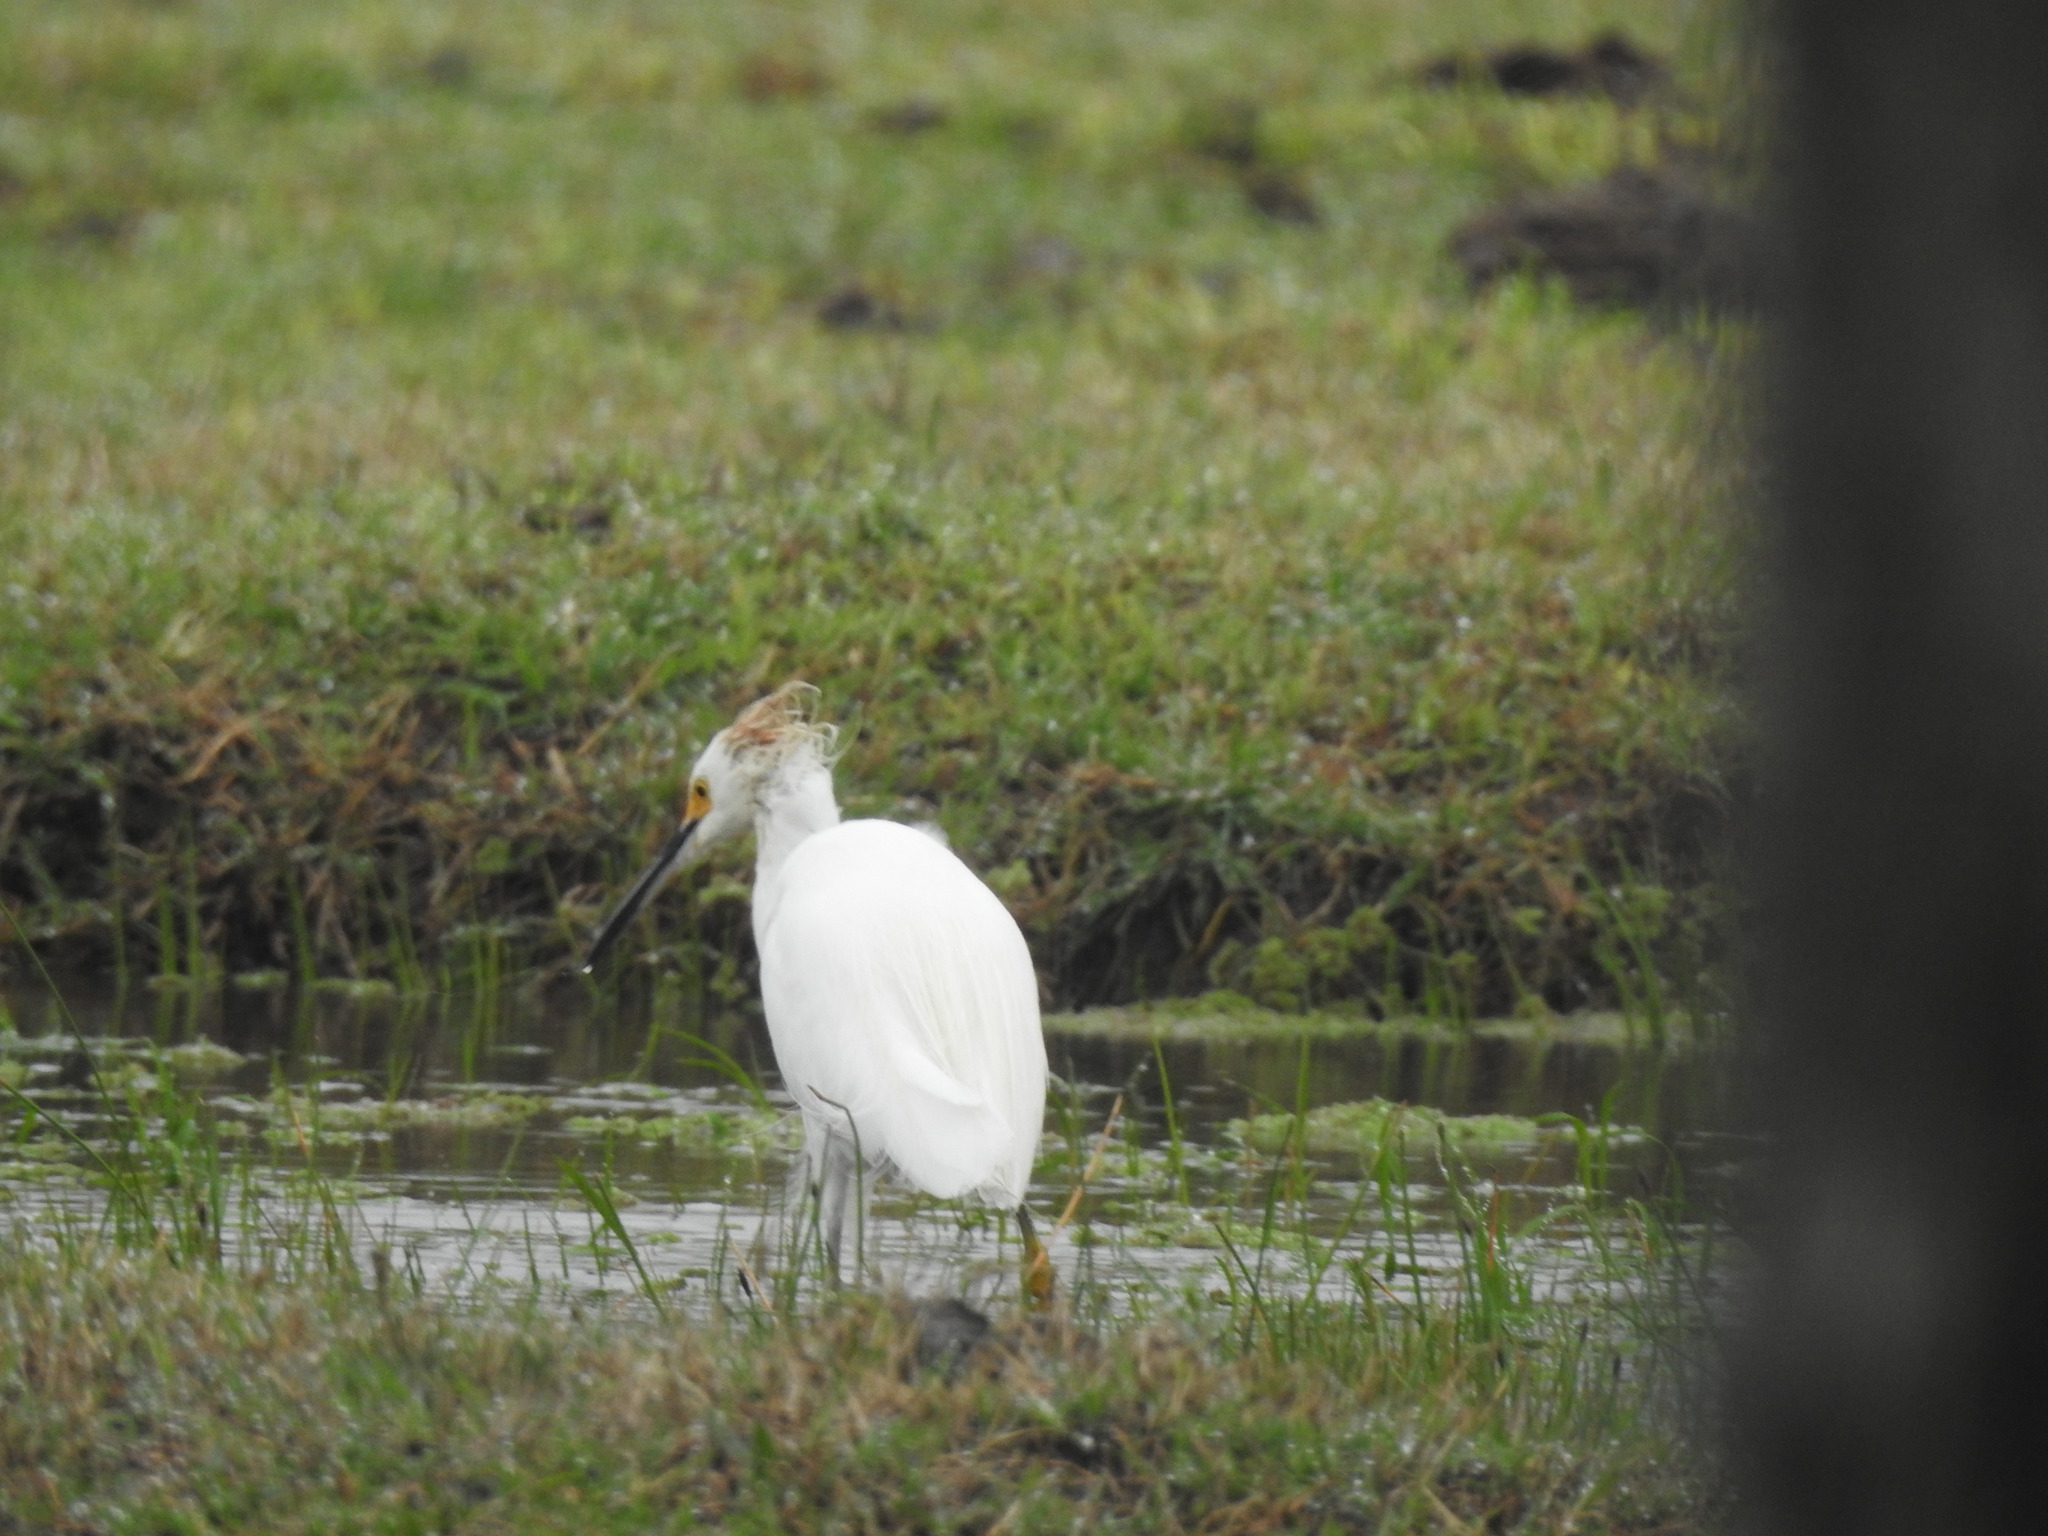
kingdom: Animalia
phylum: Chordata
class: Aves
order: Pelecaniformes
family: Ardeidae
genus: Egretta
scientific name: Egretta thula
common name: Snowy egret
